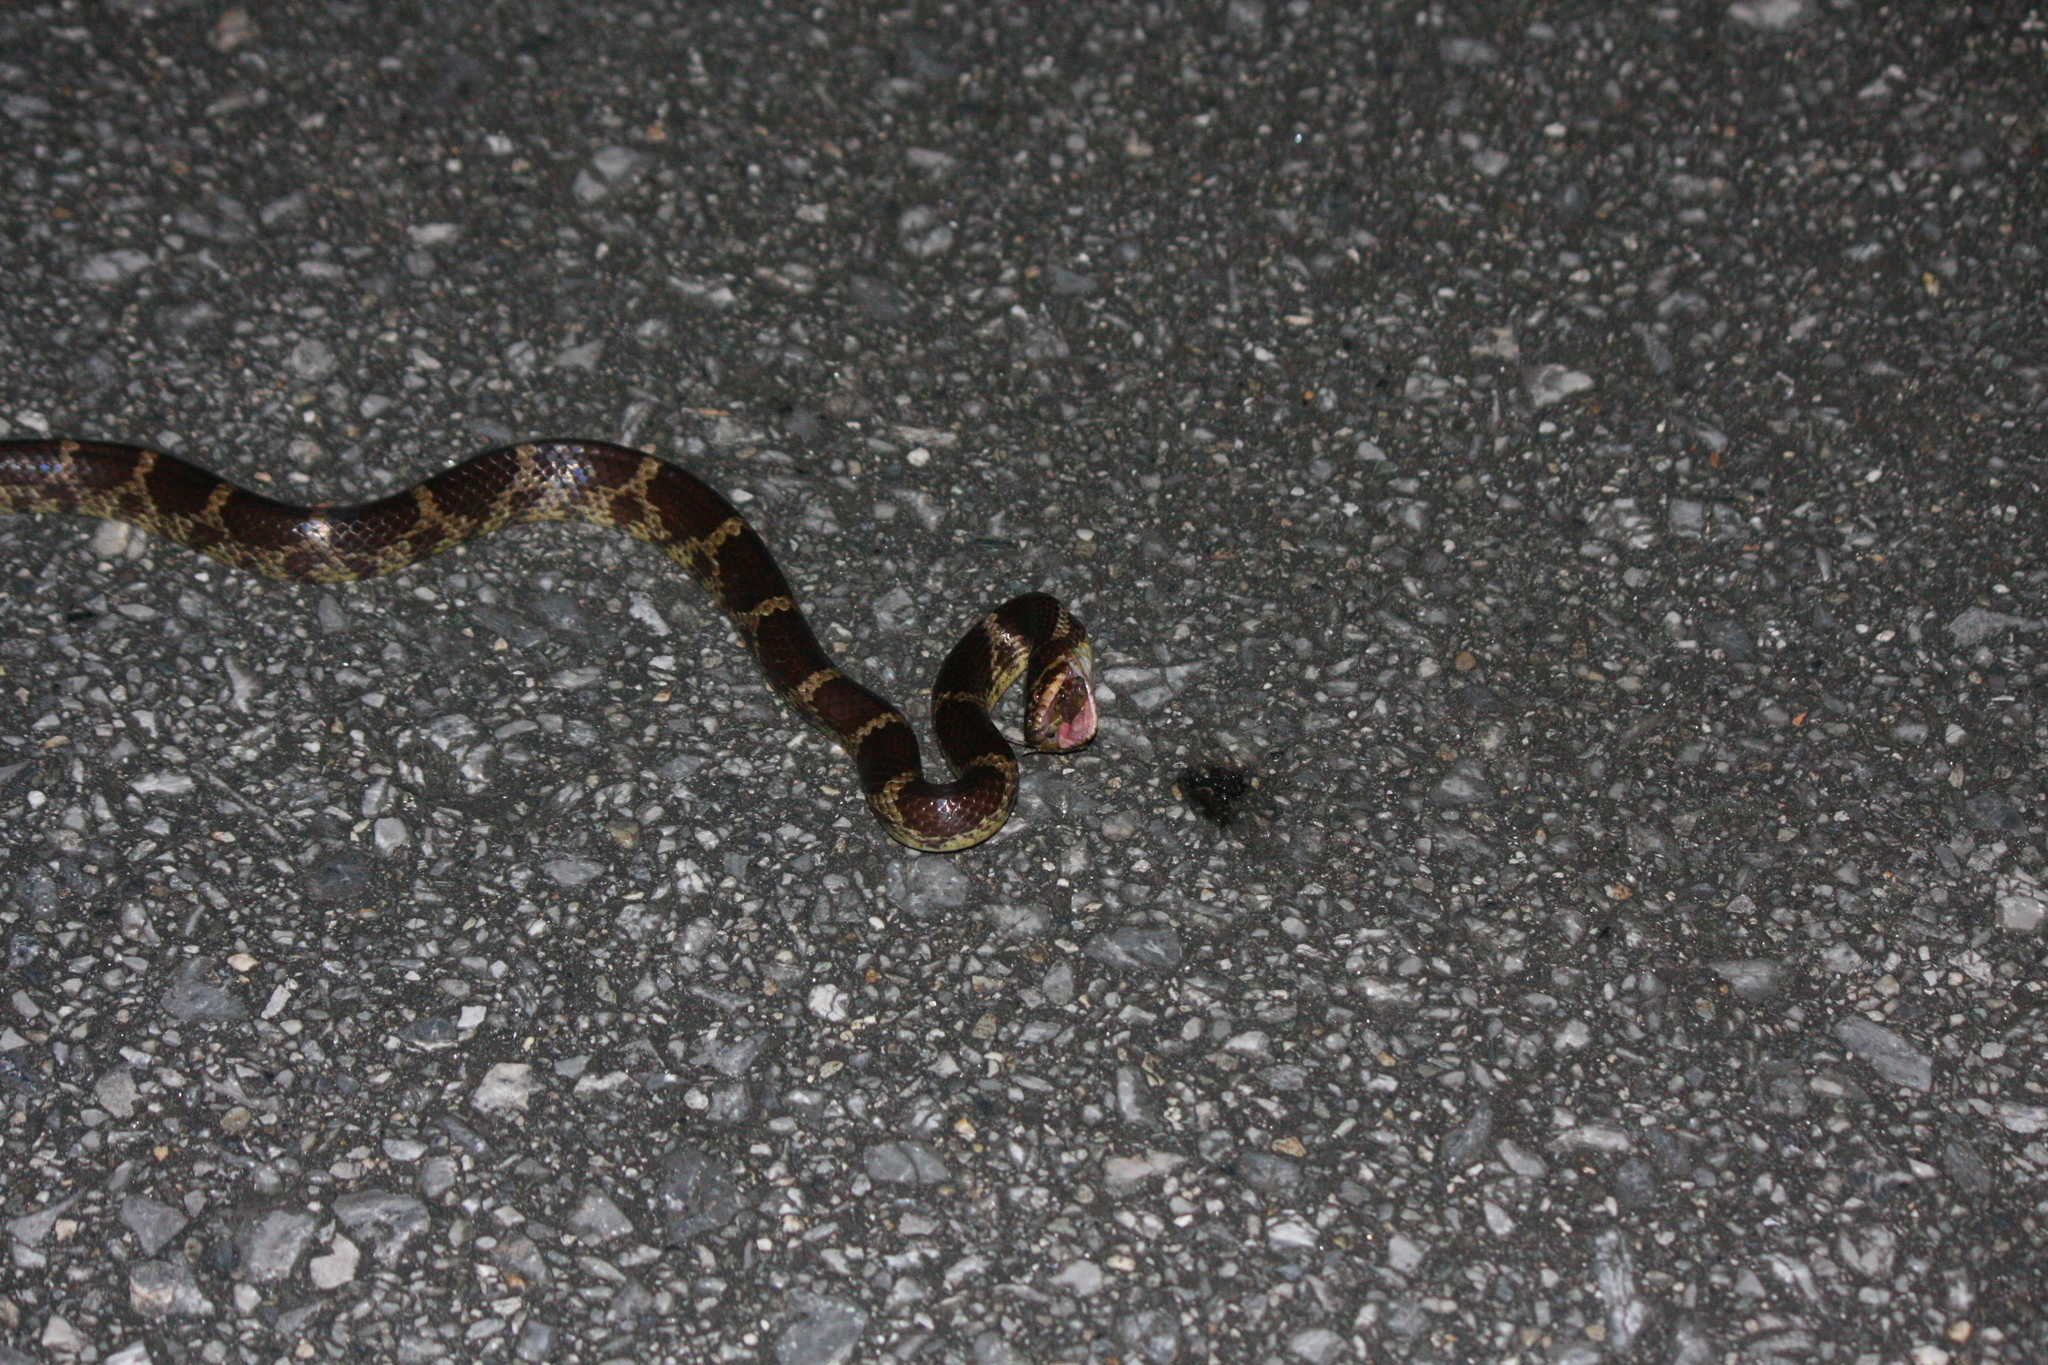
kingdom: Animalia
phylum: Chordata
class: Squamata
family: Colubridae
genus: Lycodon
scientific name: Lycodon rufozonatus
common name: Red-banded snake
